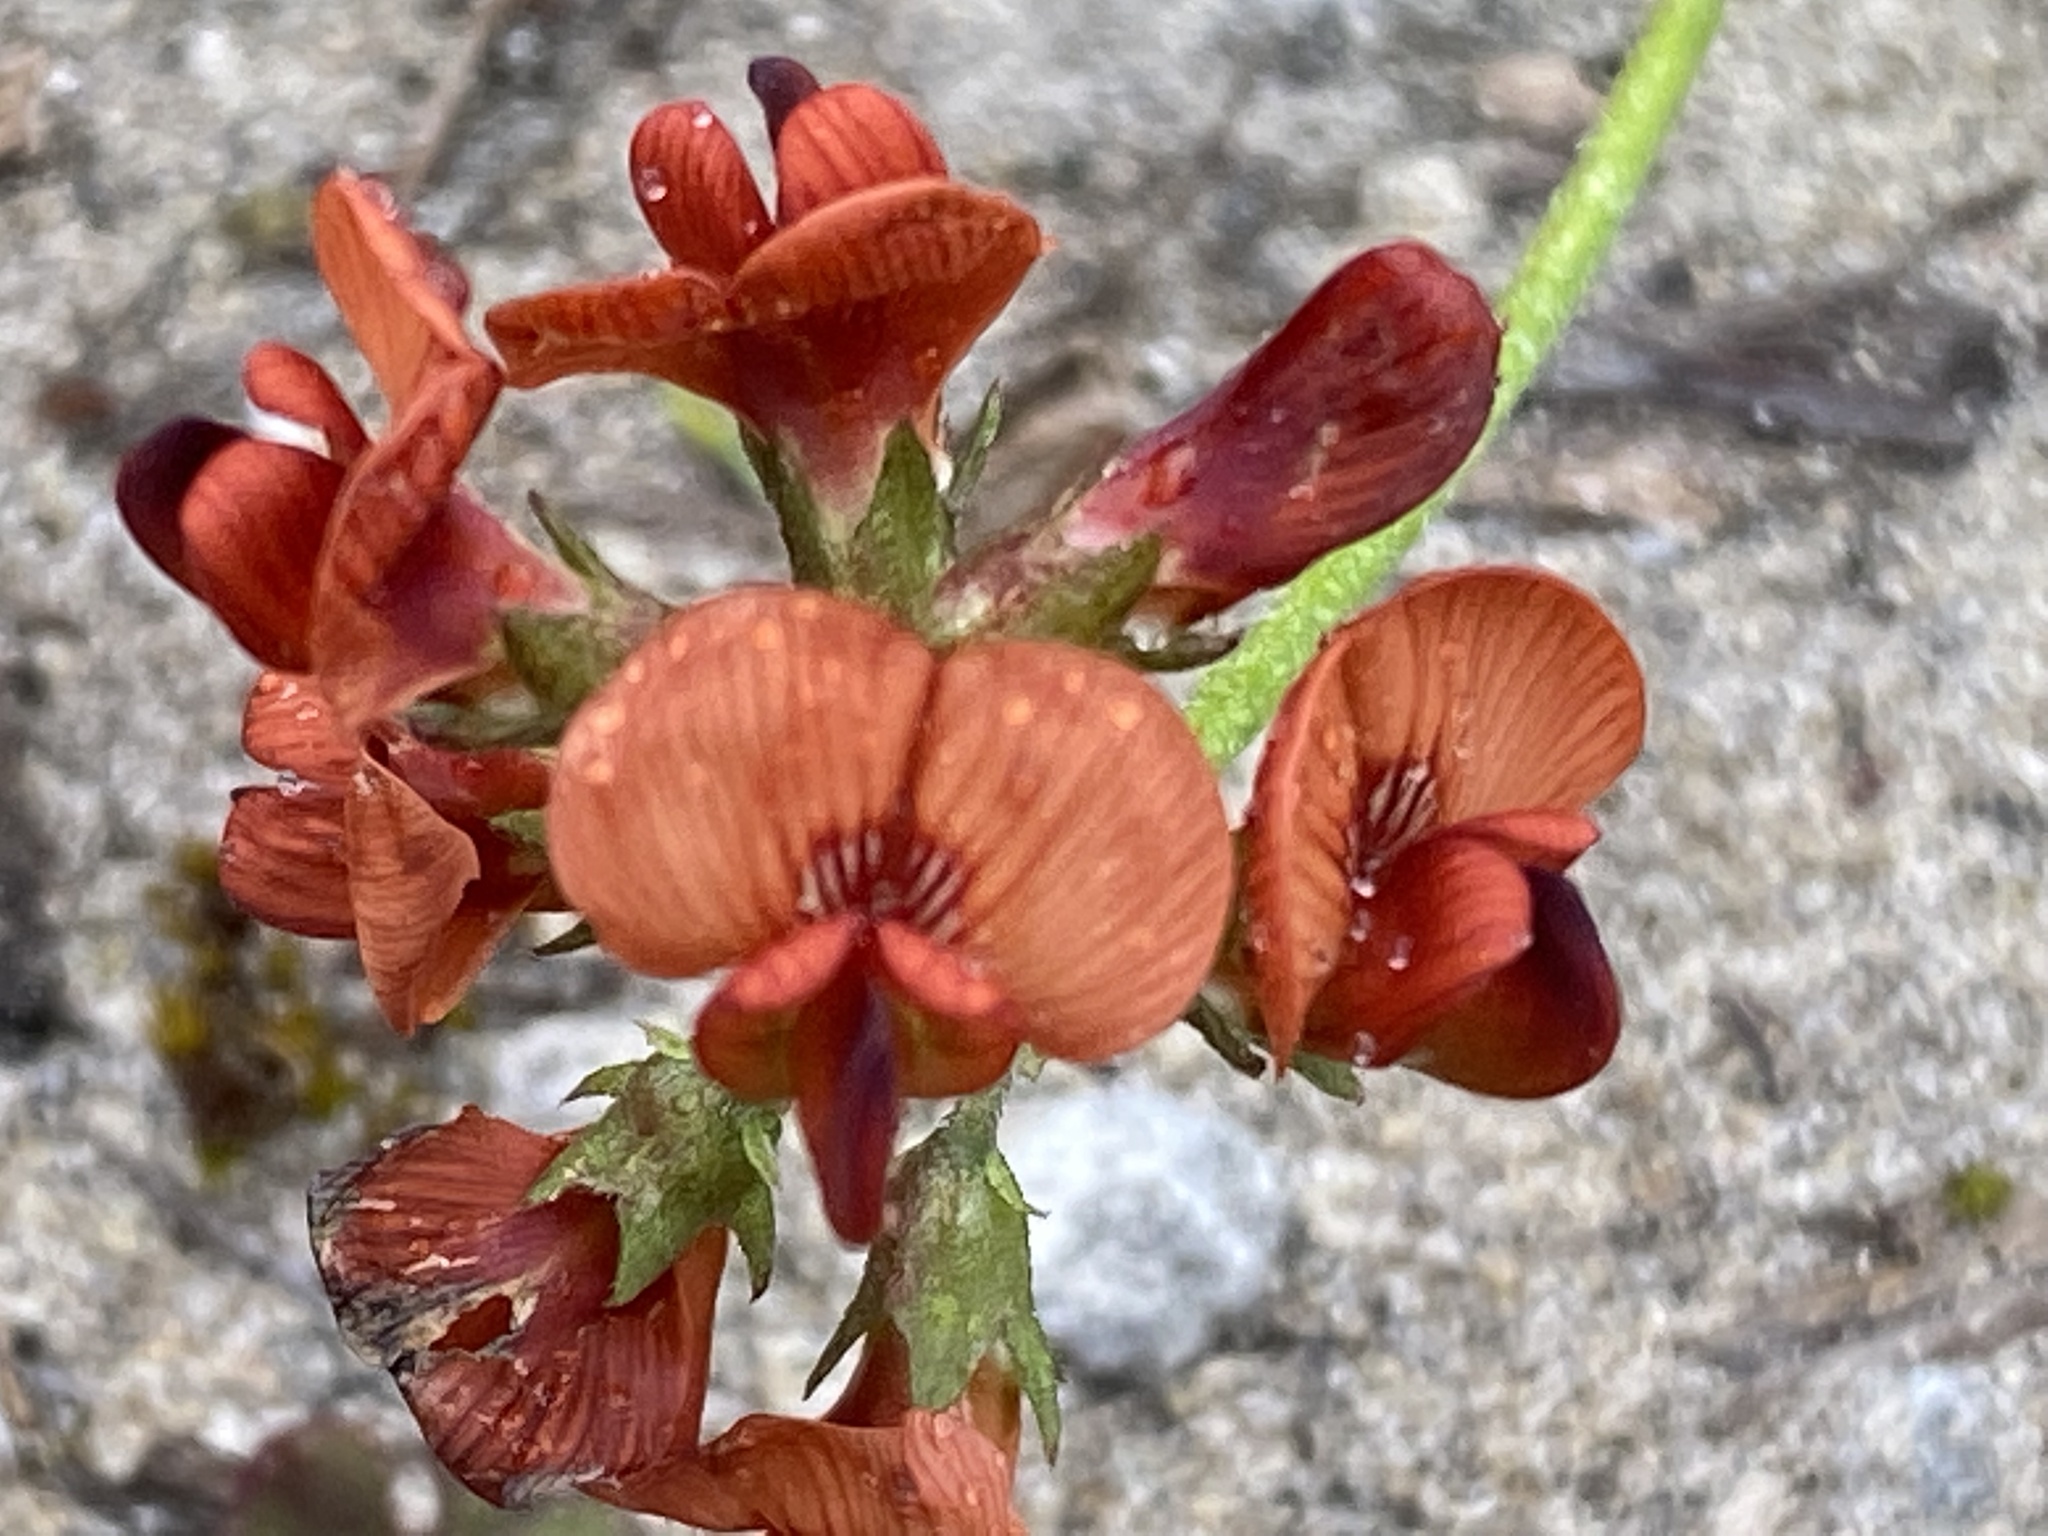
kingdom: Plantae
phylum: Tracheophyta
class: Magnoliopsida
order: Fabales
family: Fabaceae
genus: Lessertia
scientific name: Lessertia miniata
